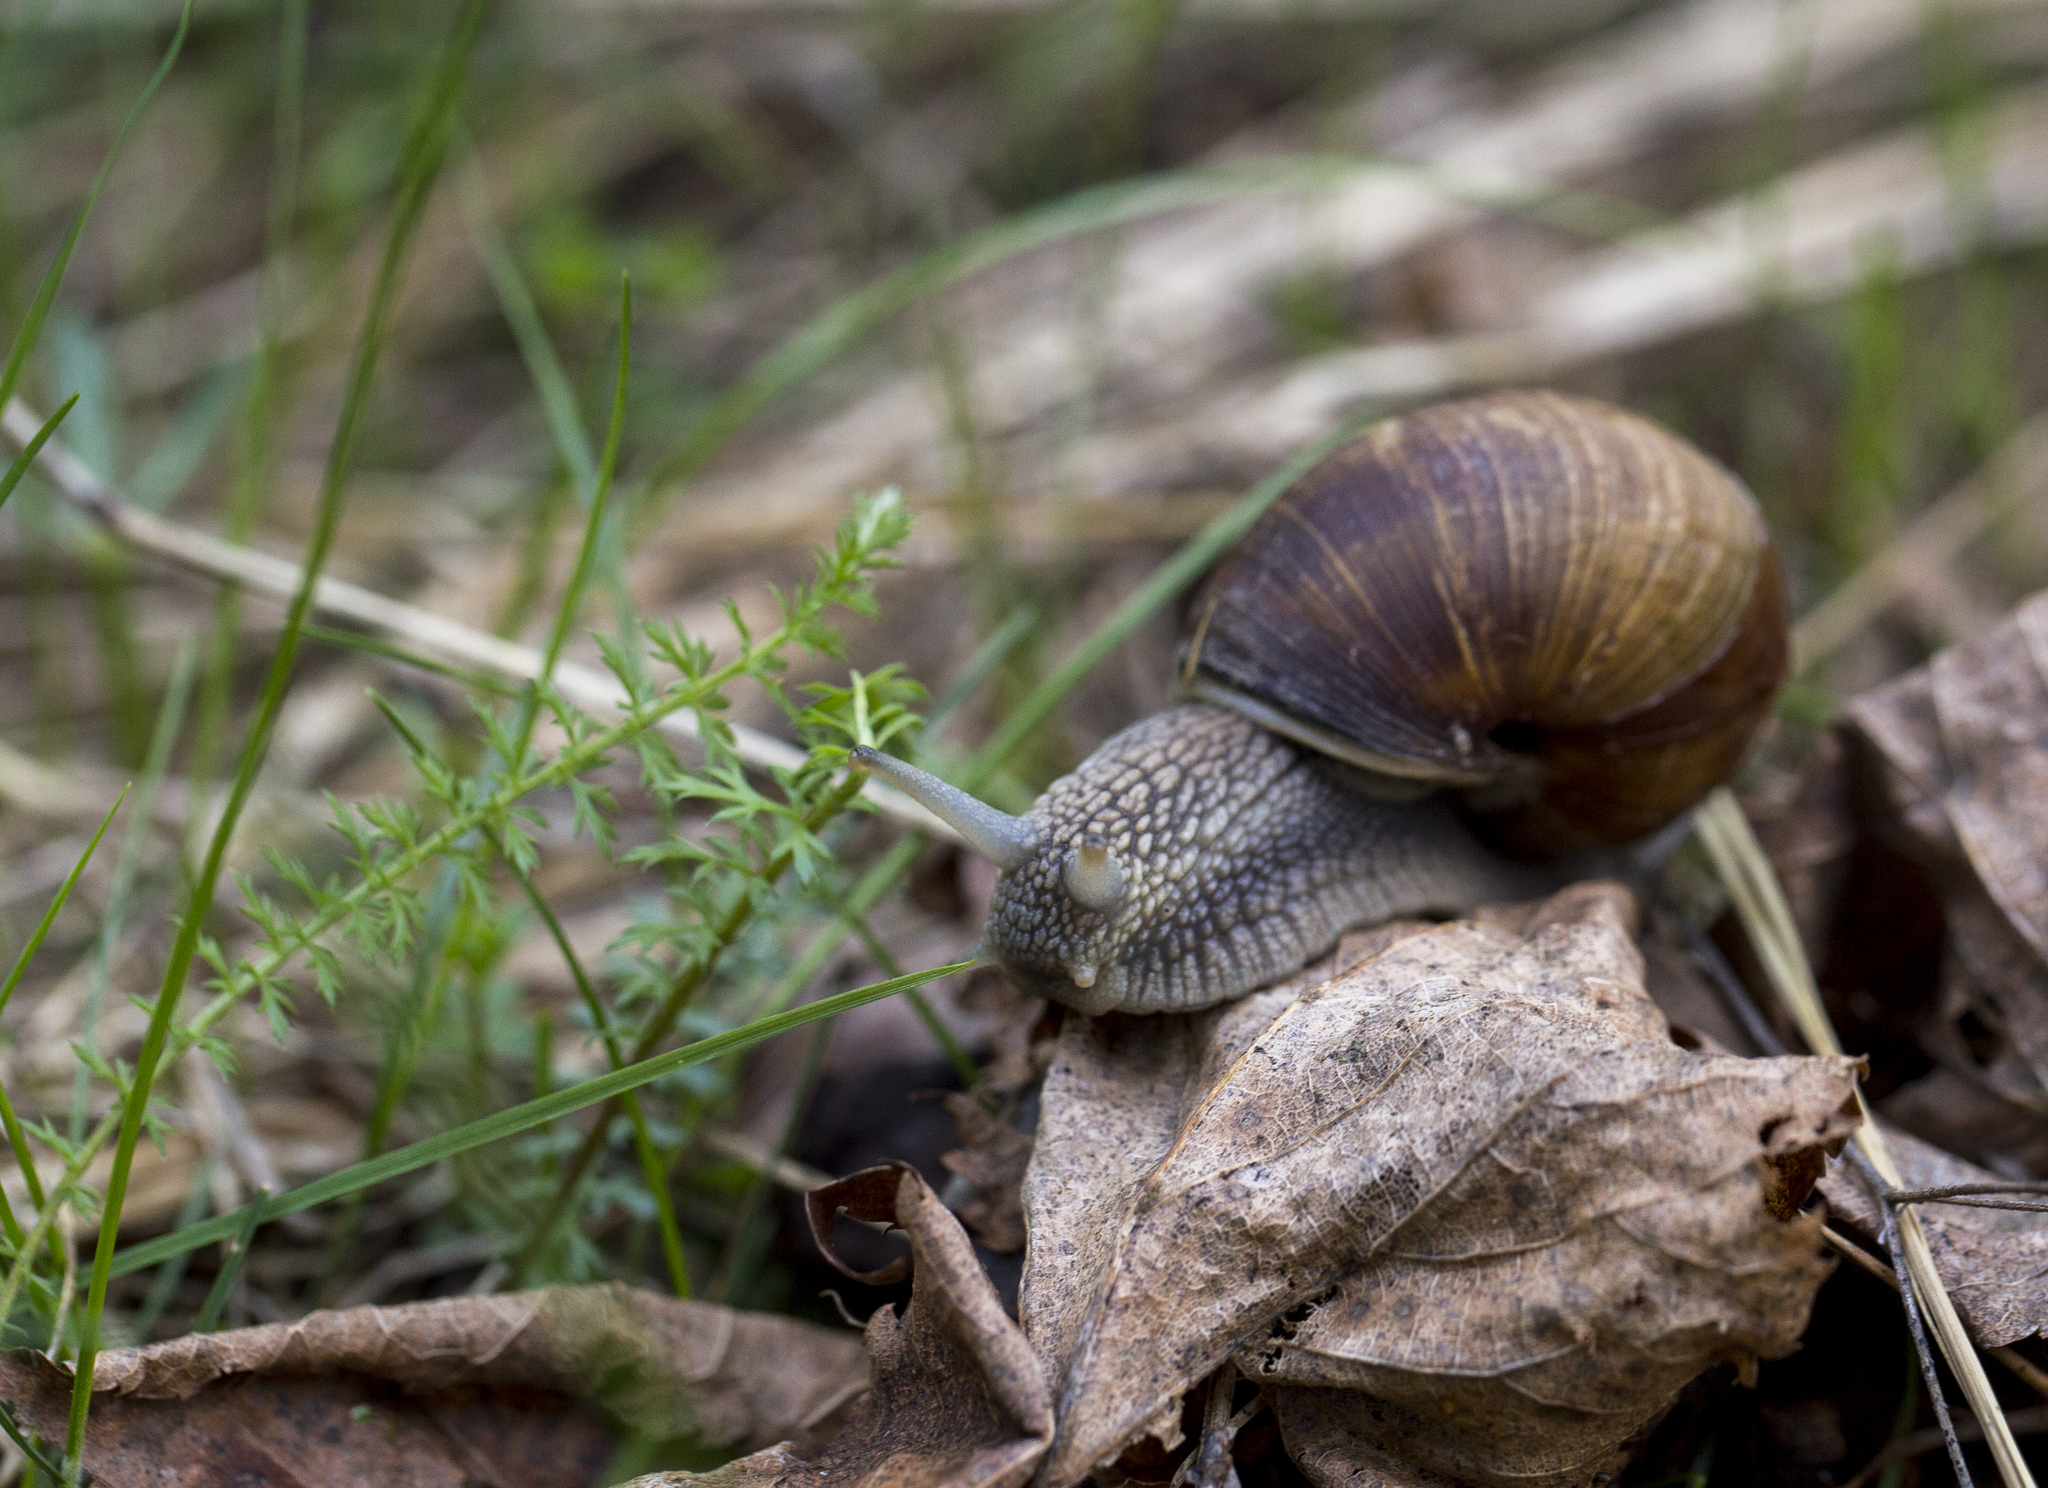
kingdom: Animalia
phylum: Mollusca
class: Gastropoda
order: Stylommatophora
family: Helicidae
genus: Helix
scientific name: Helix pomatia
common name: Roman snail
